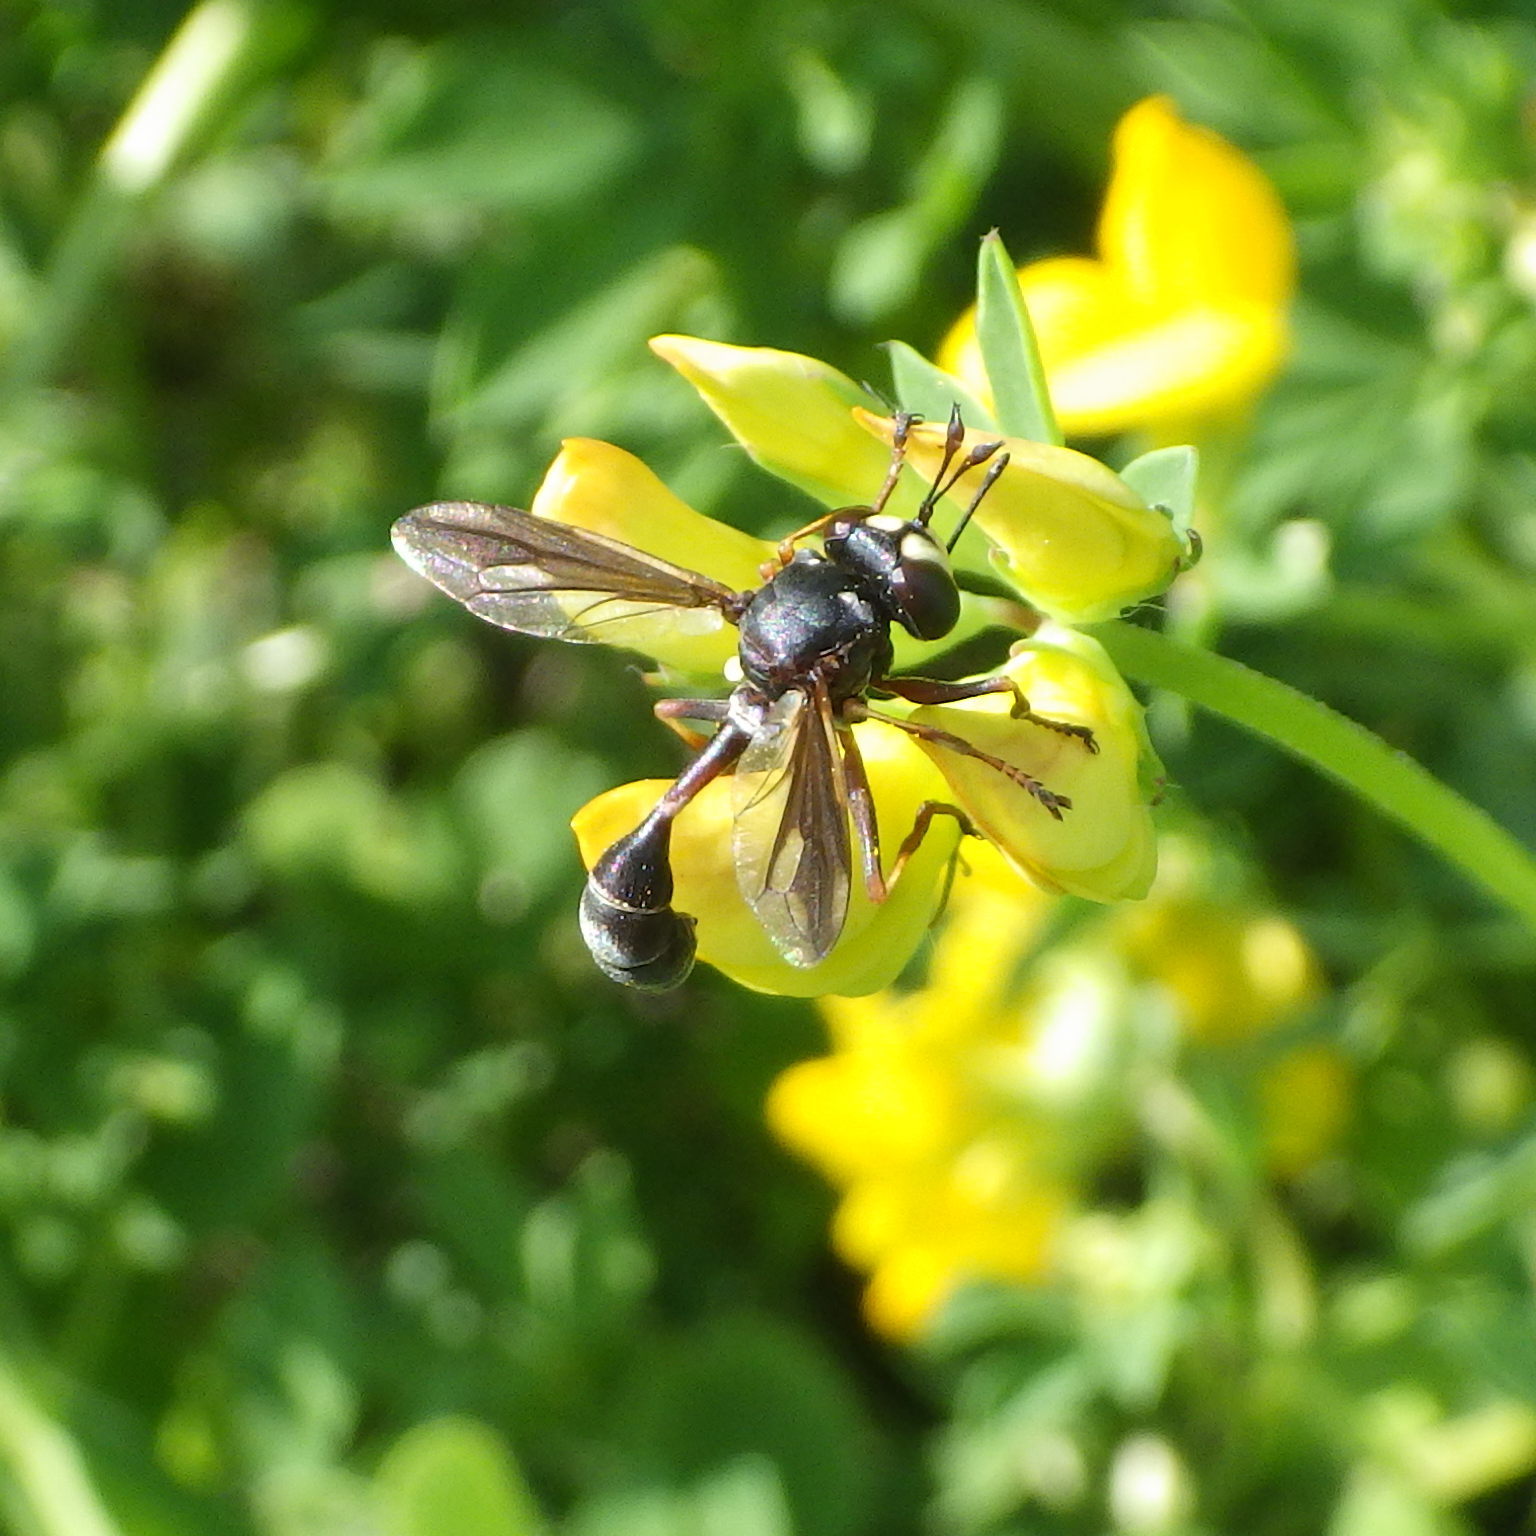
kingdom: Animalia
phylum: Arthropoda
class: Insecta
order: Diptera
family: Conopidae
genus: Physocephala
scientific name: Physocephala furcillata
